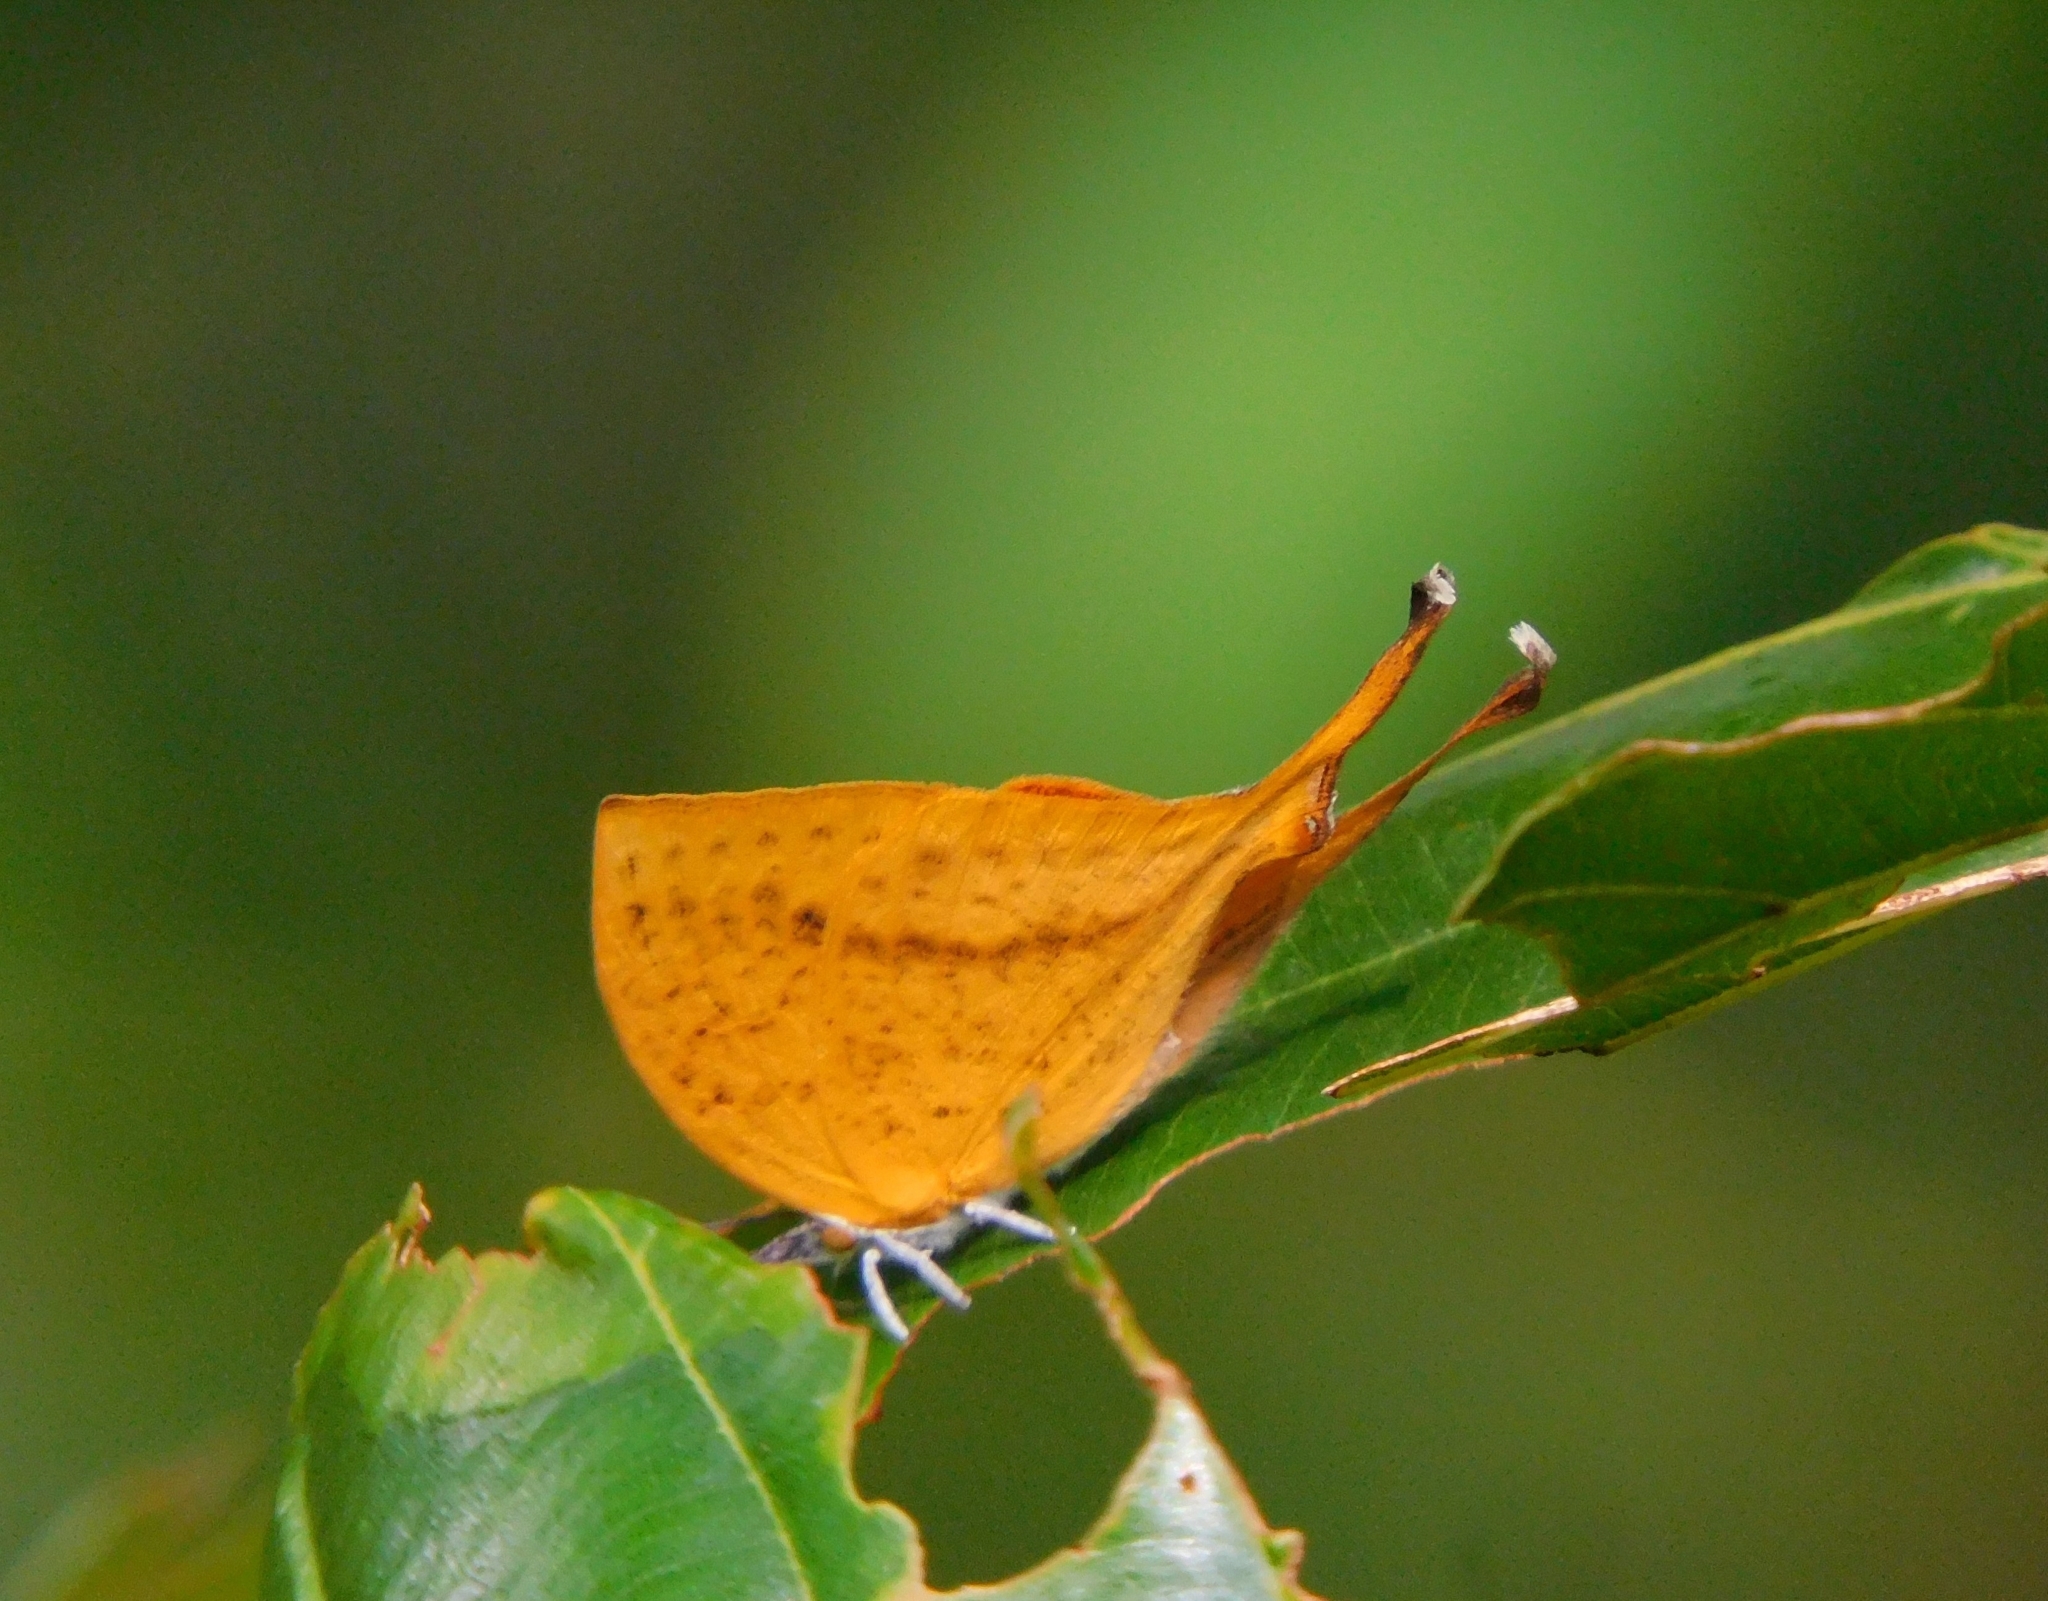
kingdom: Animalia
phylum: Arthropoda
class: Insecta
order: Lepidoptera
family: Lycaenidae
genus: Loxura
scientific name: Loxura atymnus
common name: Common yamfly
